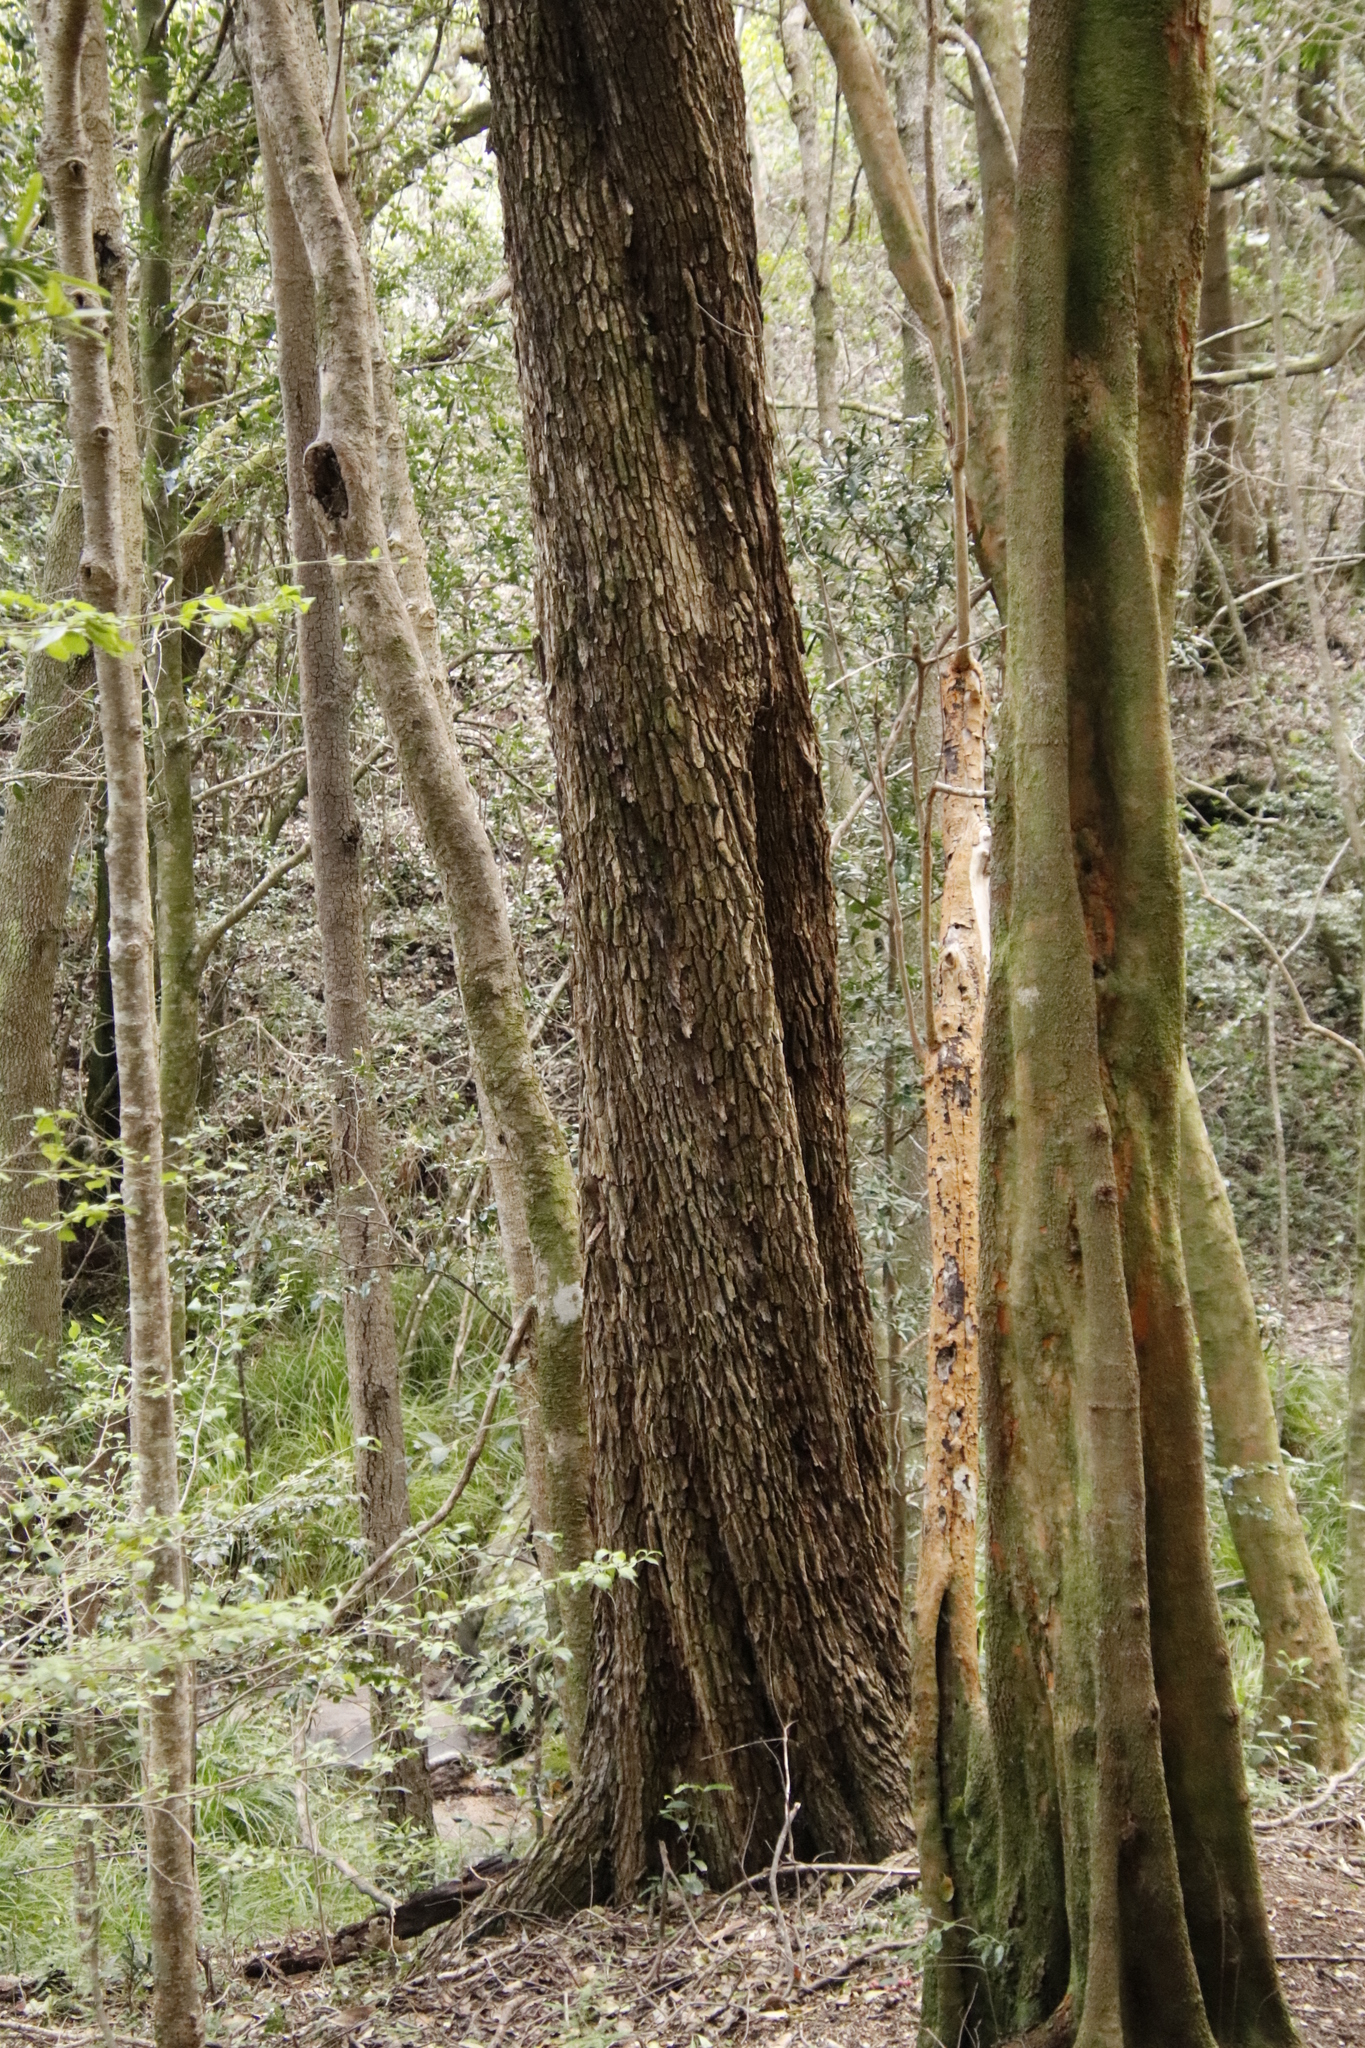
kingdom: Plantae
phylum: Tracheophyta
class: Magnoliopsida
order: Myrtales
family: Penaeaceae
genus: Olinia
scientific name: Olinia ventosa
